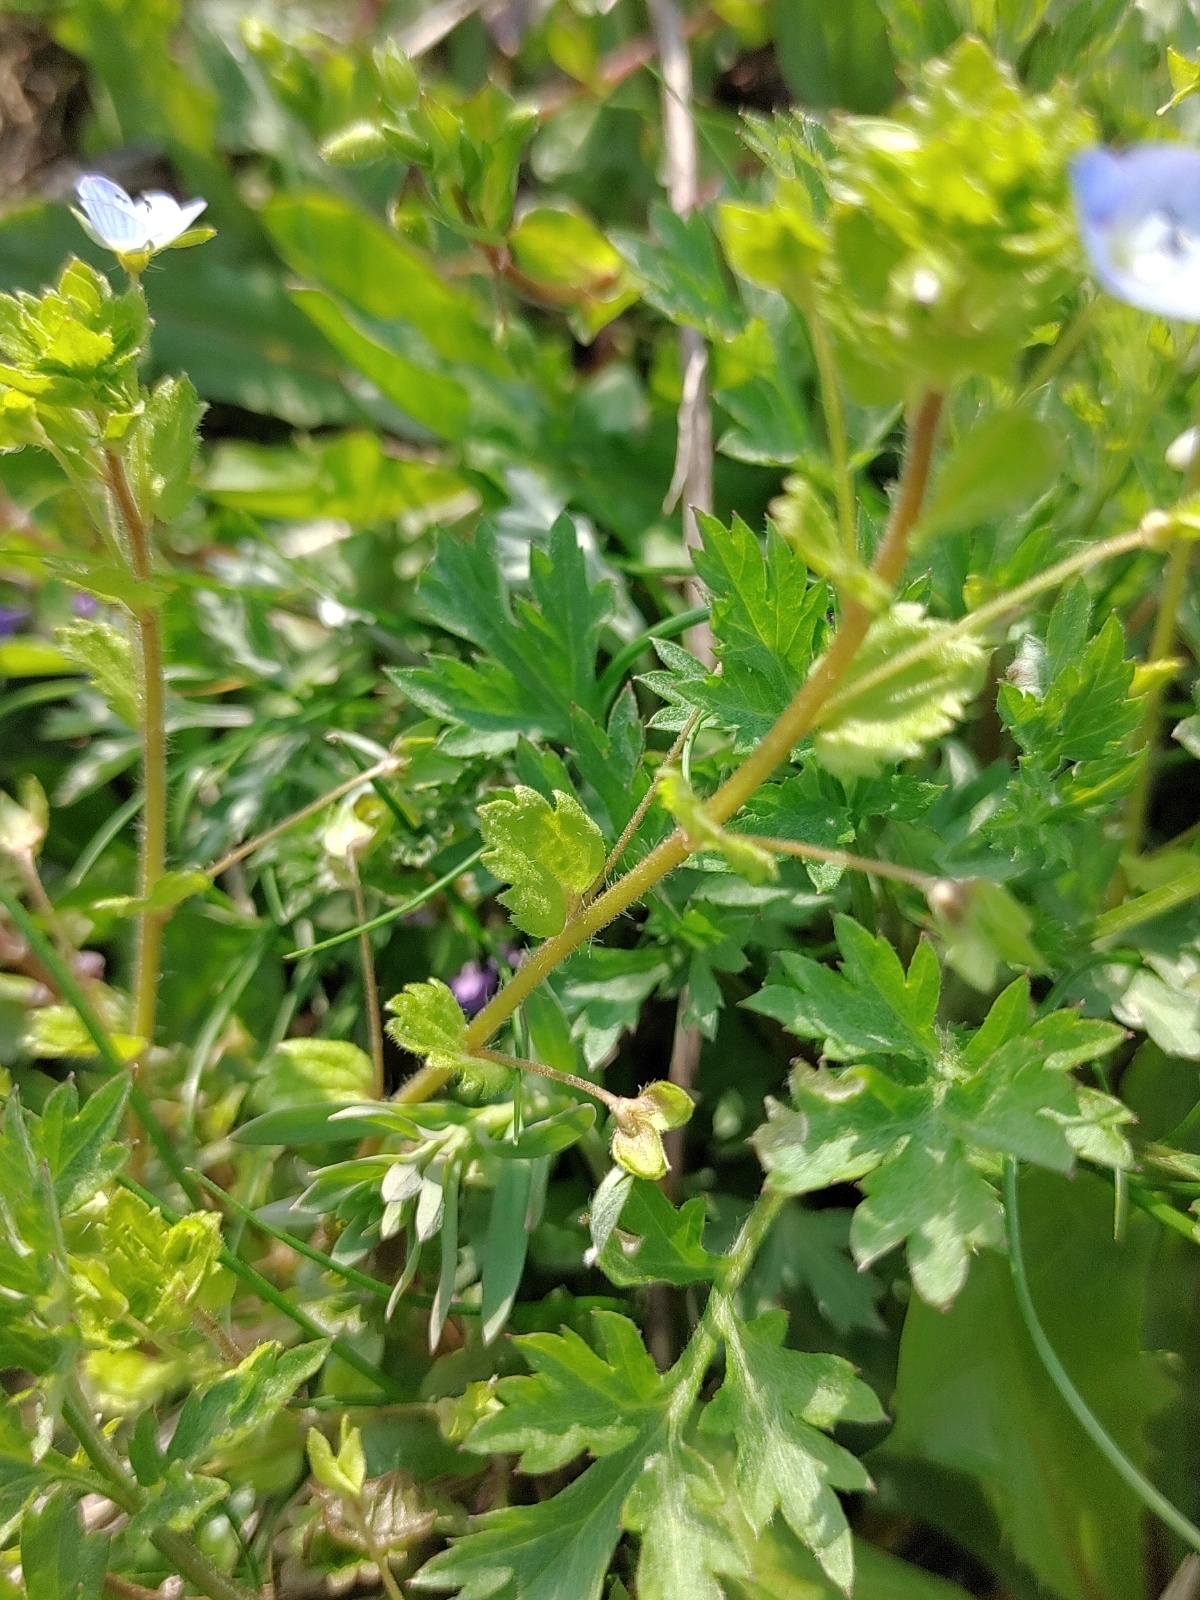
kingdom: Plantae
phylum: Tracheophyta
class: Magnoliopsida
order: Lamiales
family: Plantaginaceae
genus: Veronica
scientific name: Veronica persica
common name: Common field-speedwell
